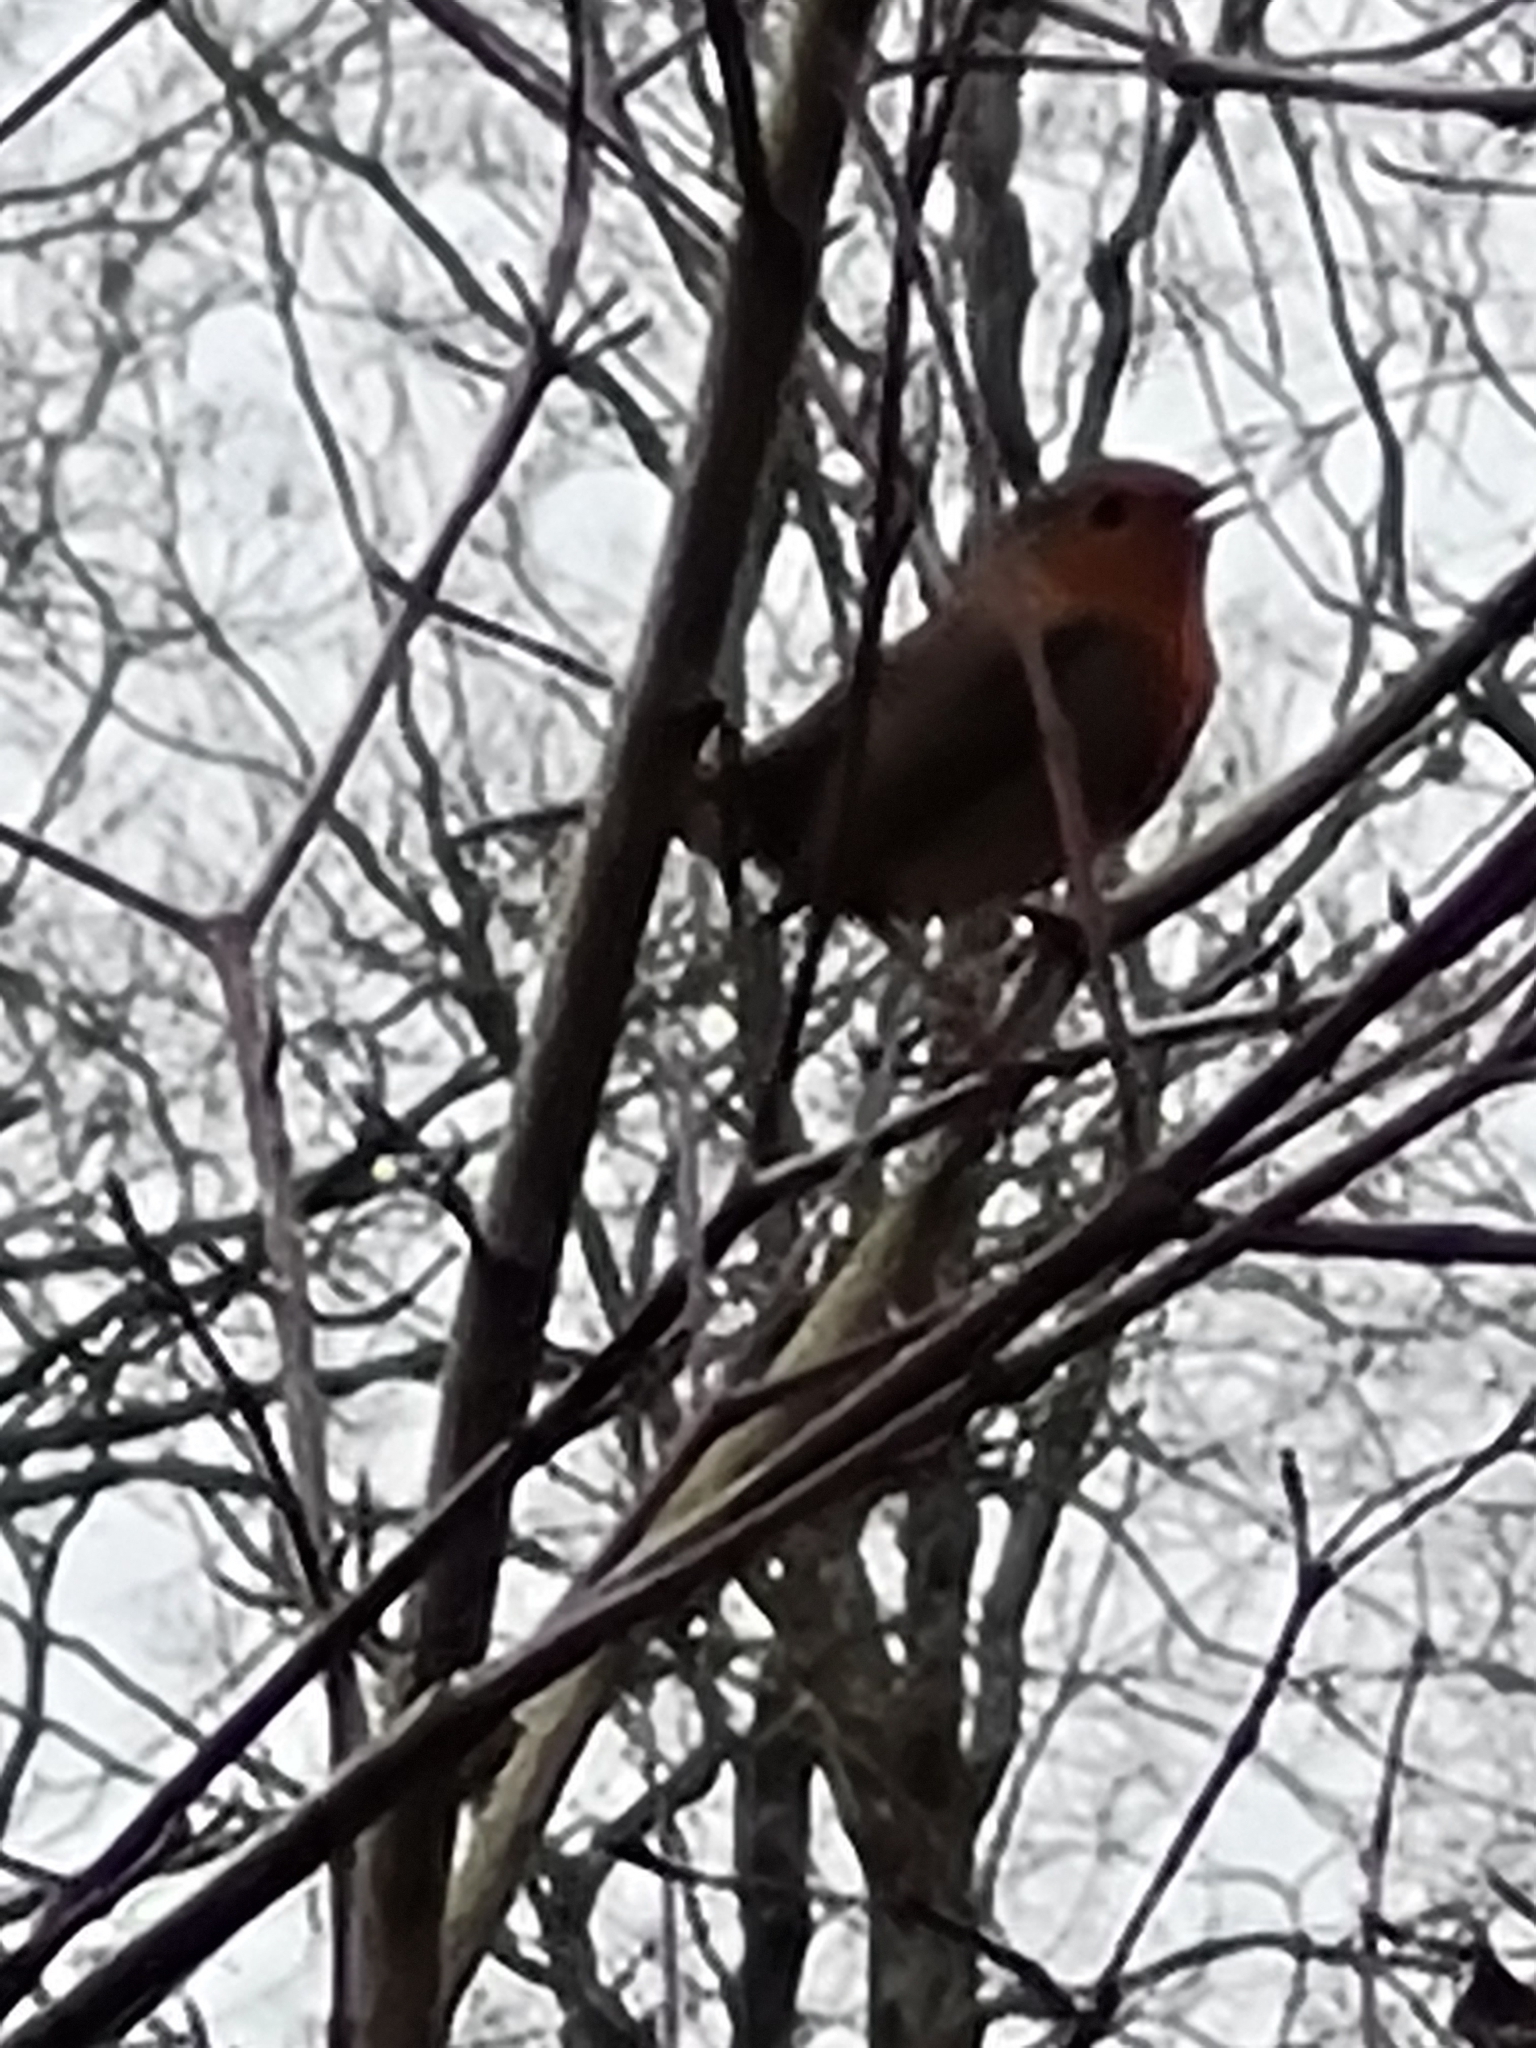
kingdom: Animalia
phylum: Chordata
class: Aves
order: Passeriformes
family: Muscicapidae
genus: Erithacus
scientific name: Erithacus rubecula
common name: European robin
